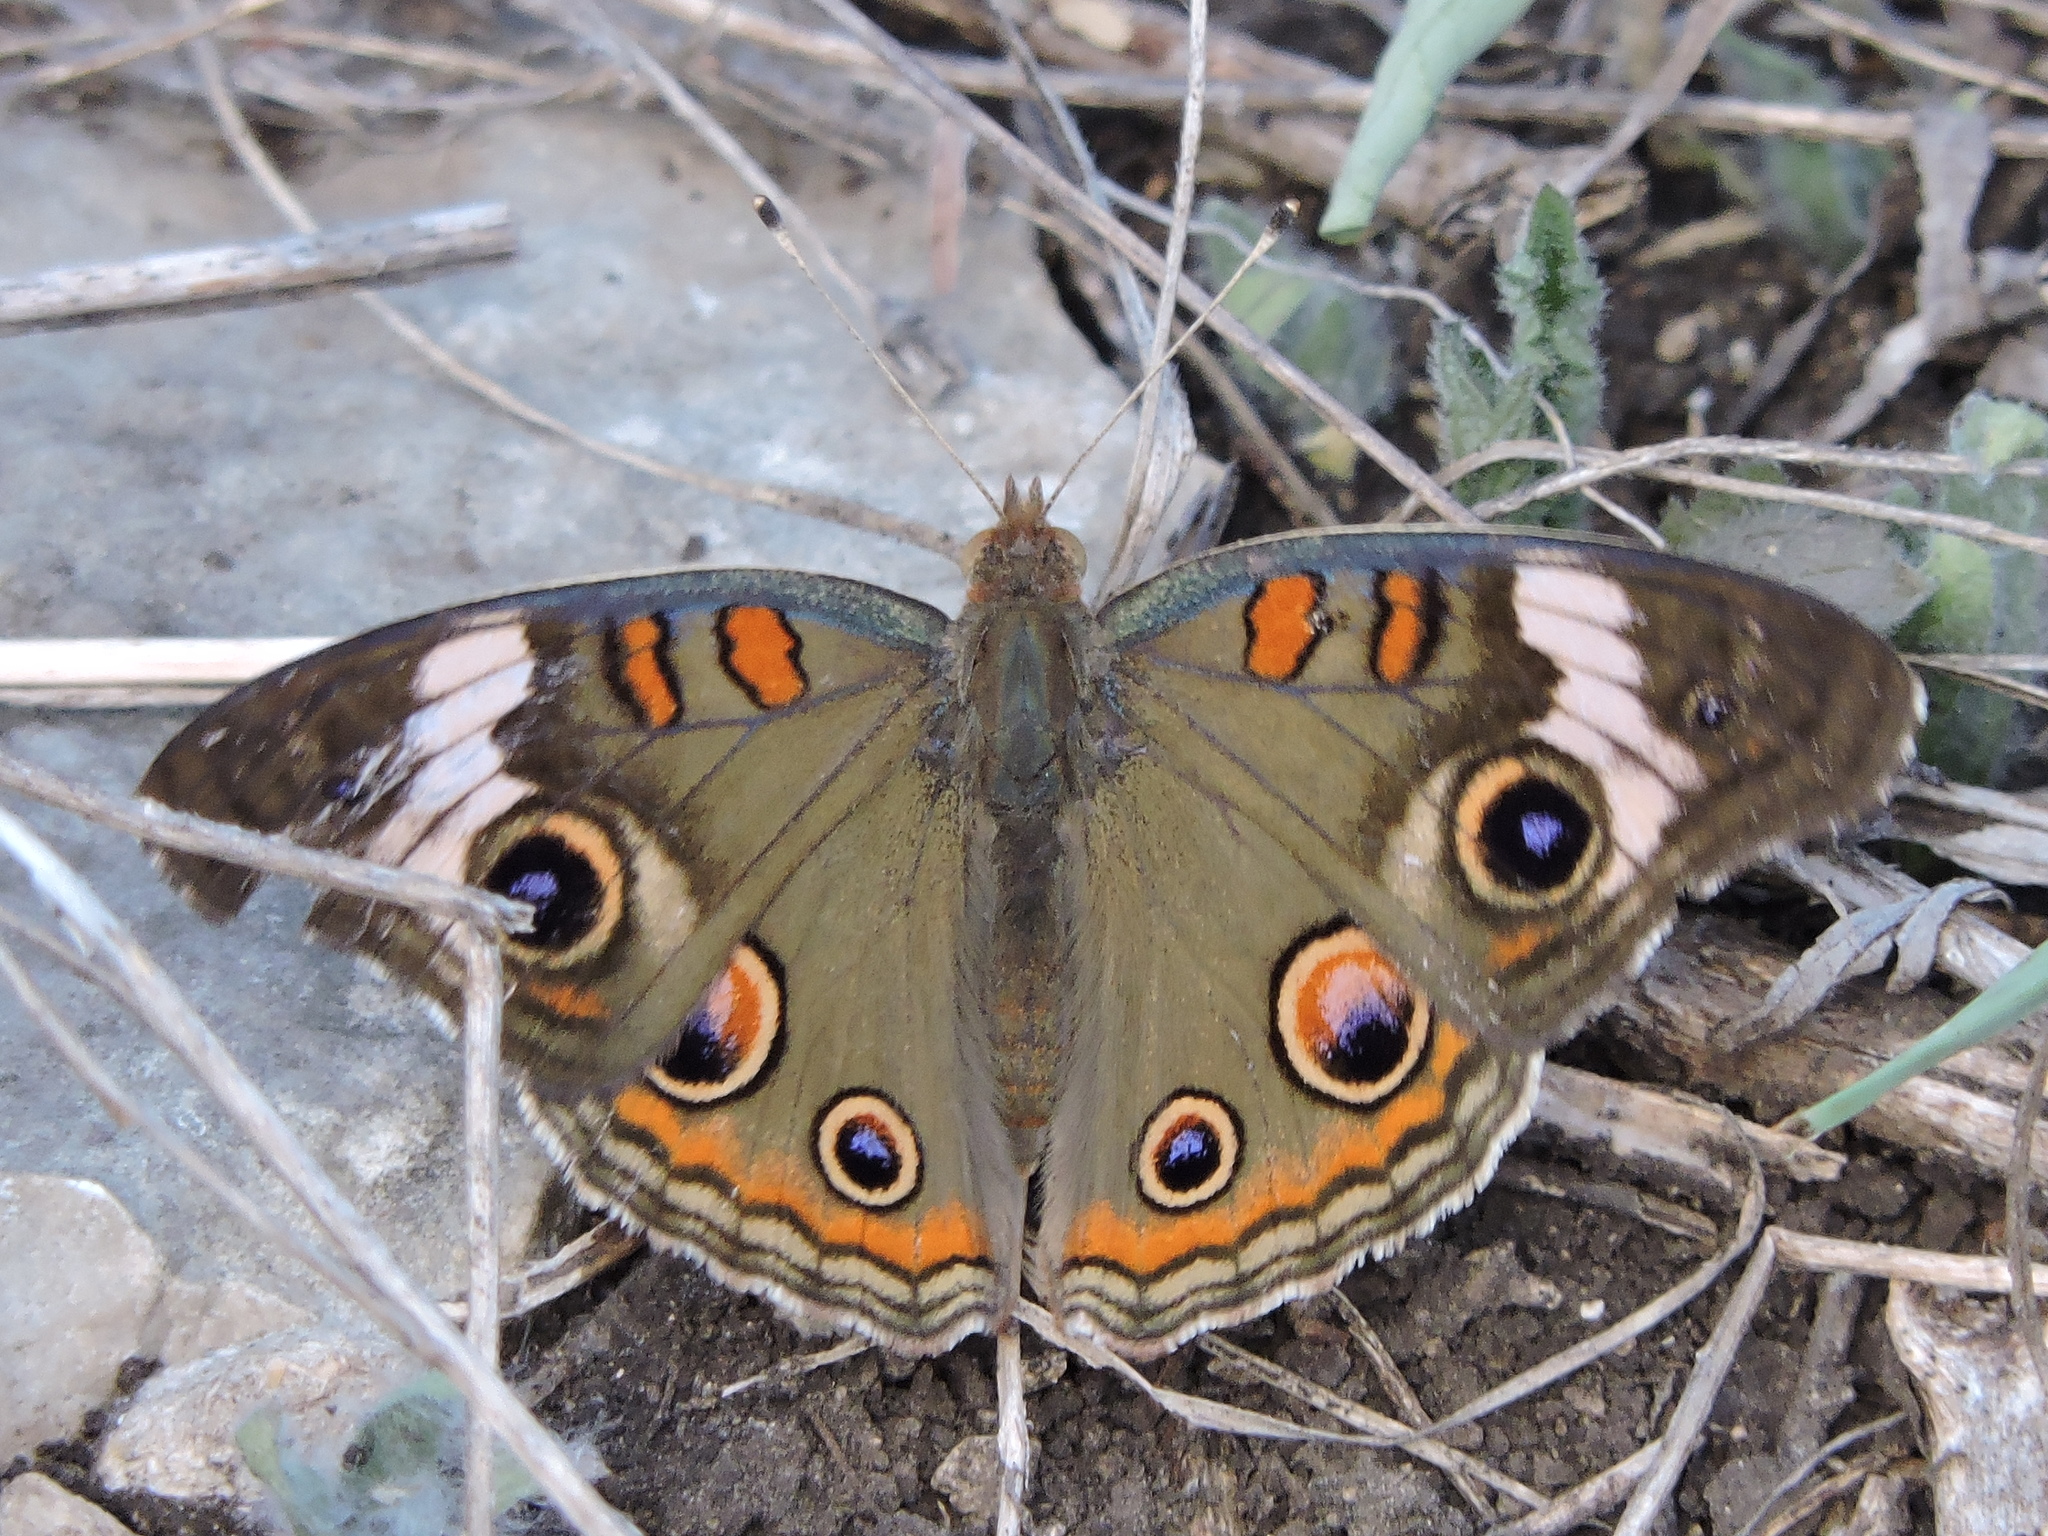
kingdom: Animalia
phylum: Arthropoda
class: Insecta
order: Lepidoptera
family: Nymphalidae
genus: Junonia
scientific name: Junonia coenia
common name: Common buckeye
